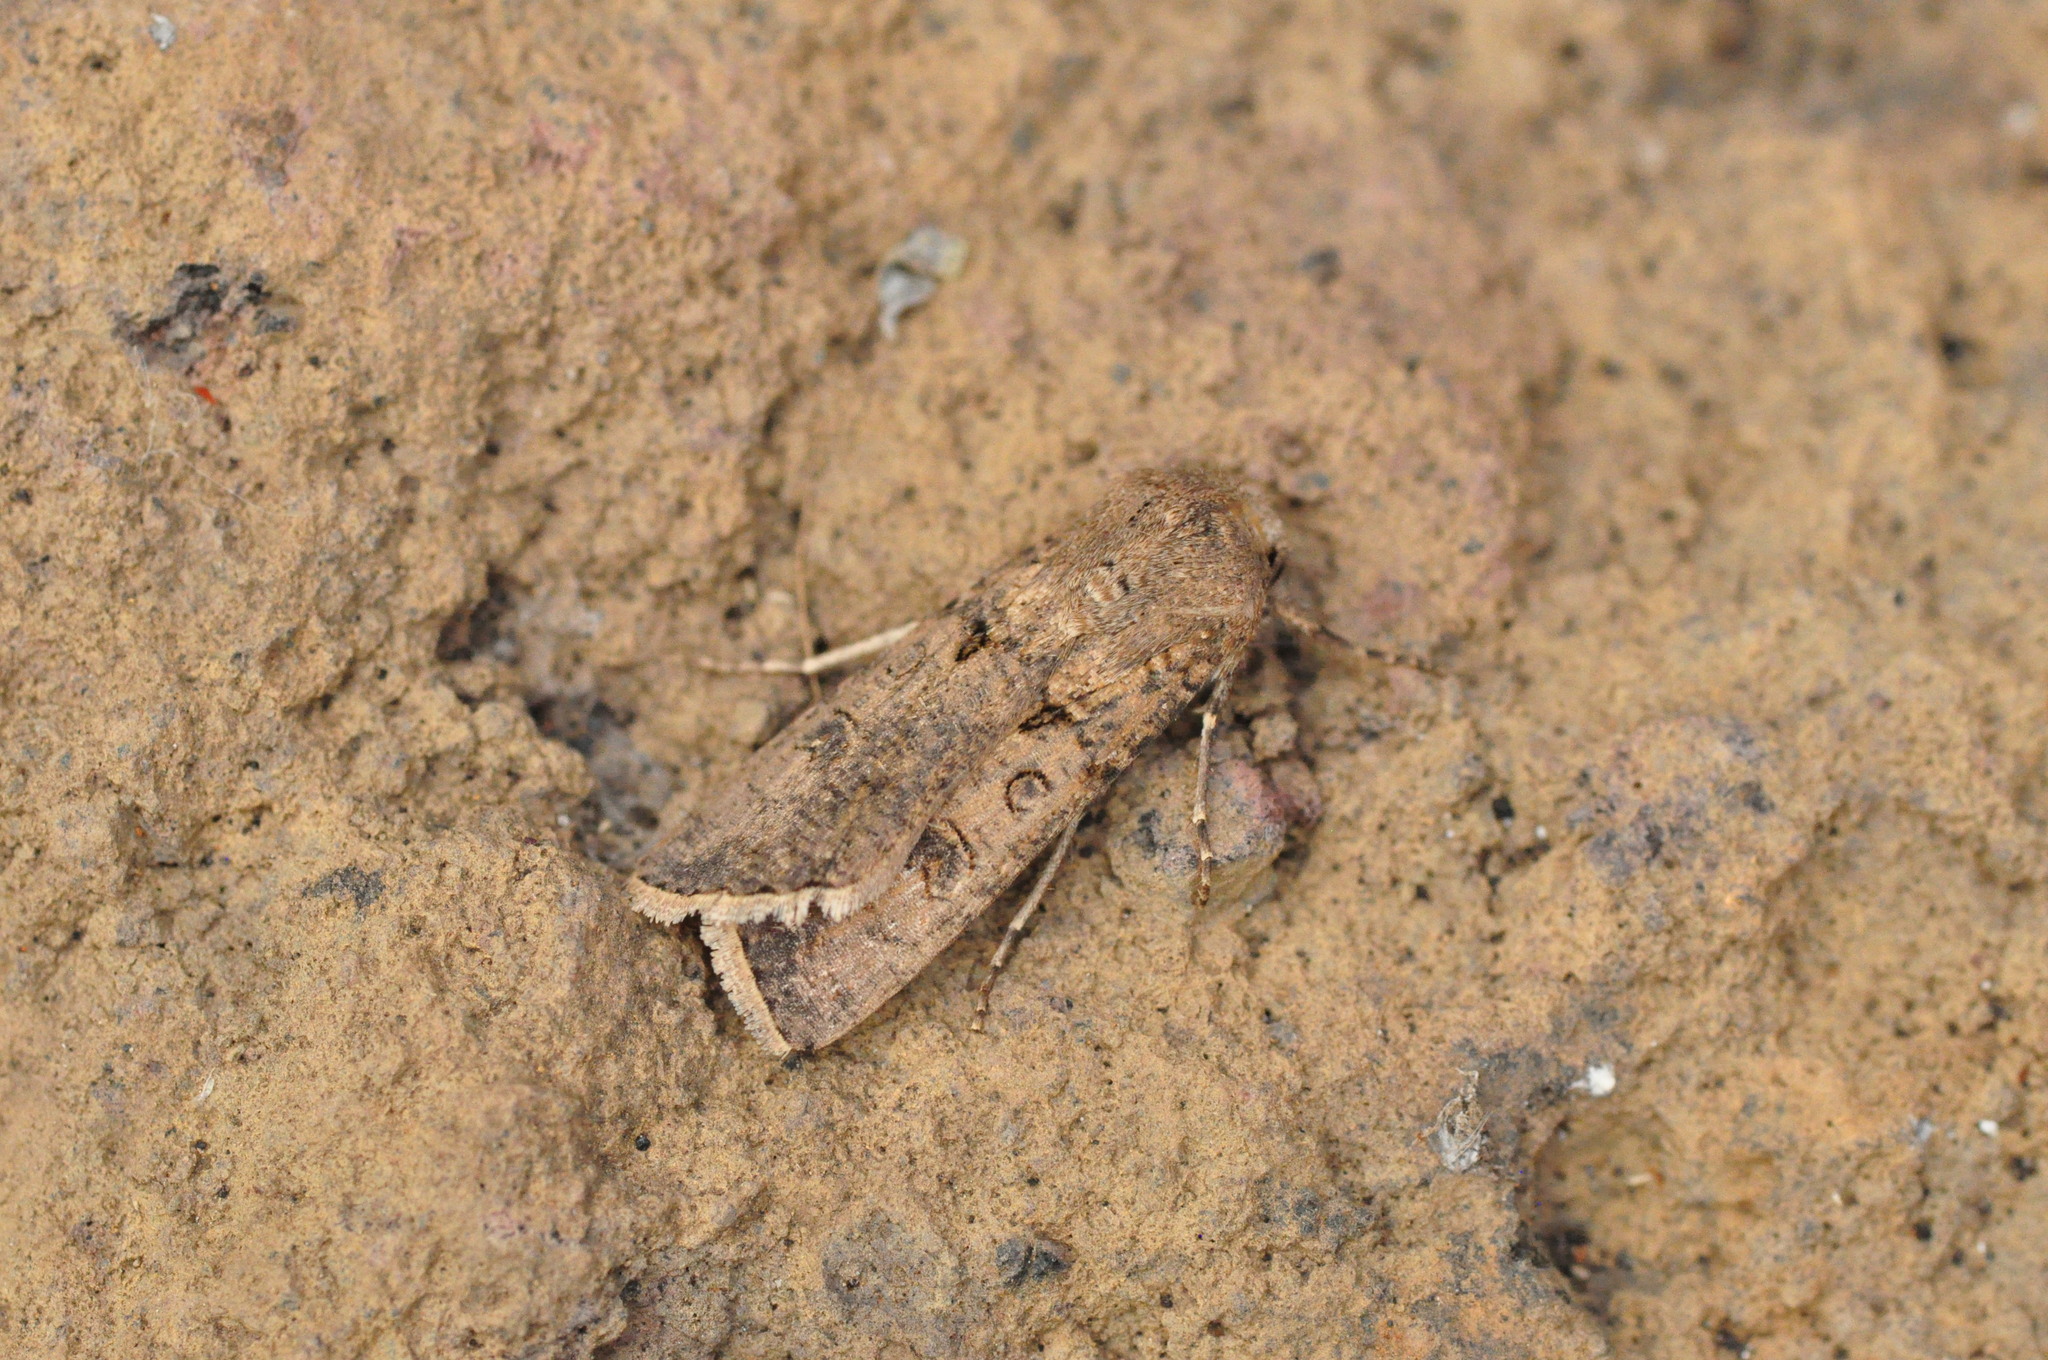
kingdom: Animalia
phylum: Arthropoda
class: Insecta
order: Lepidoptera
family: Noctuidae
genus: Agrotis
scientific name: Agrotis segetum
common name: Turnip moth
